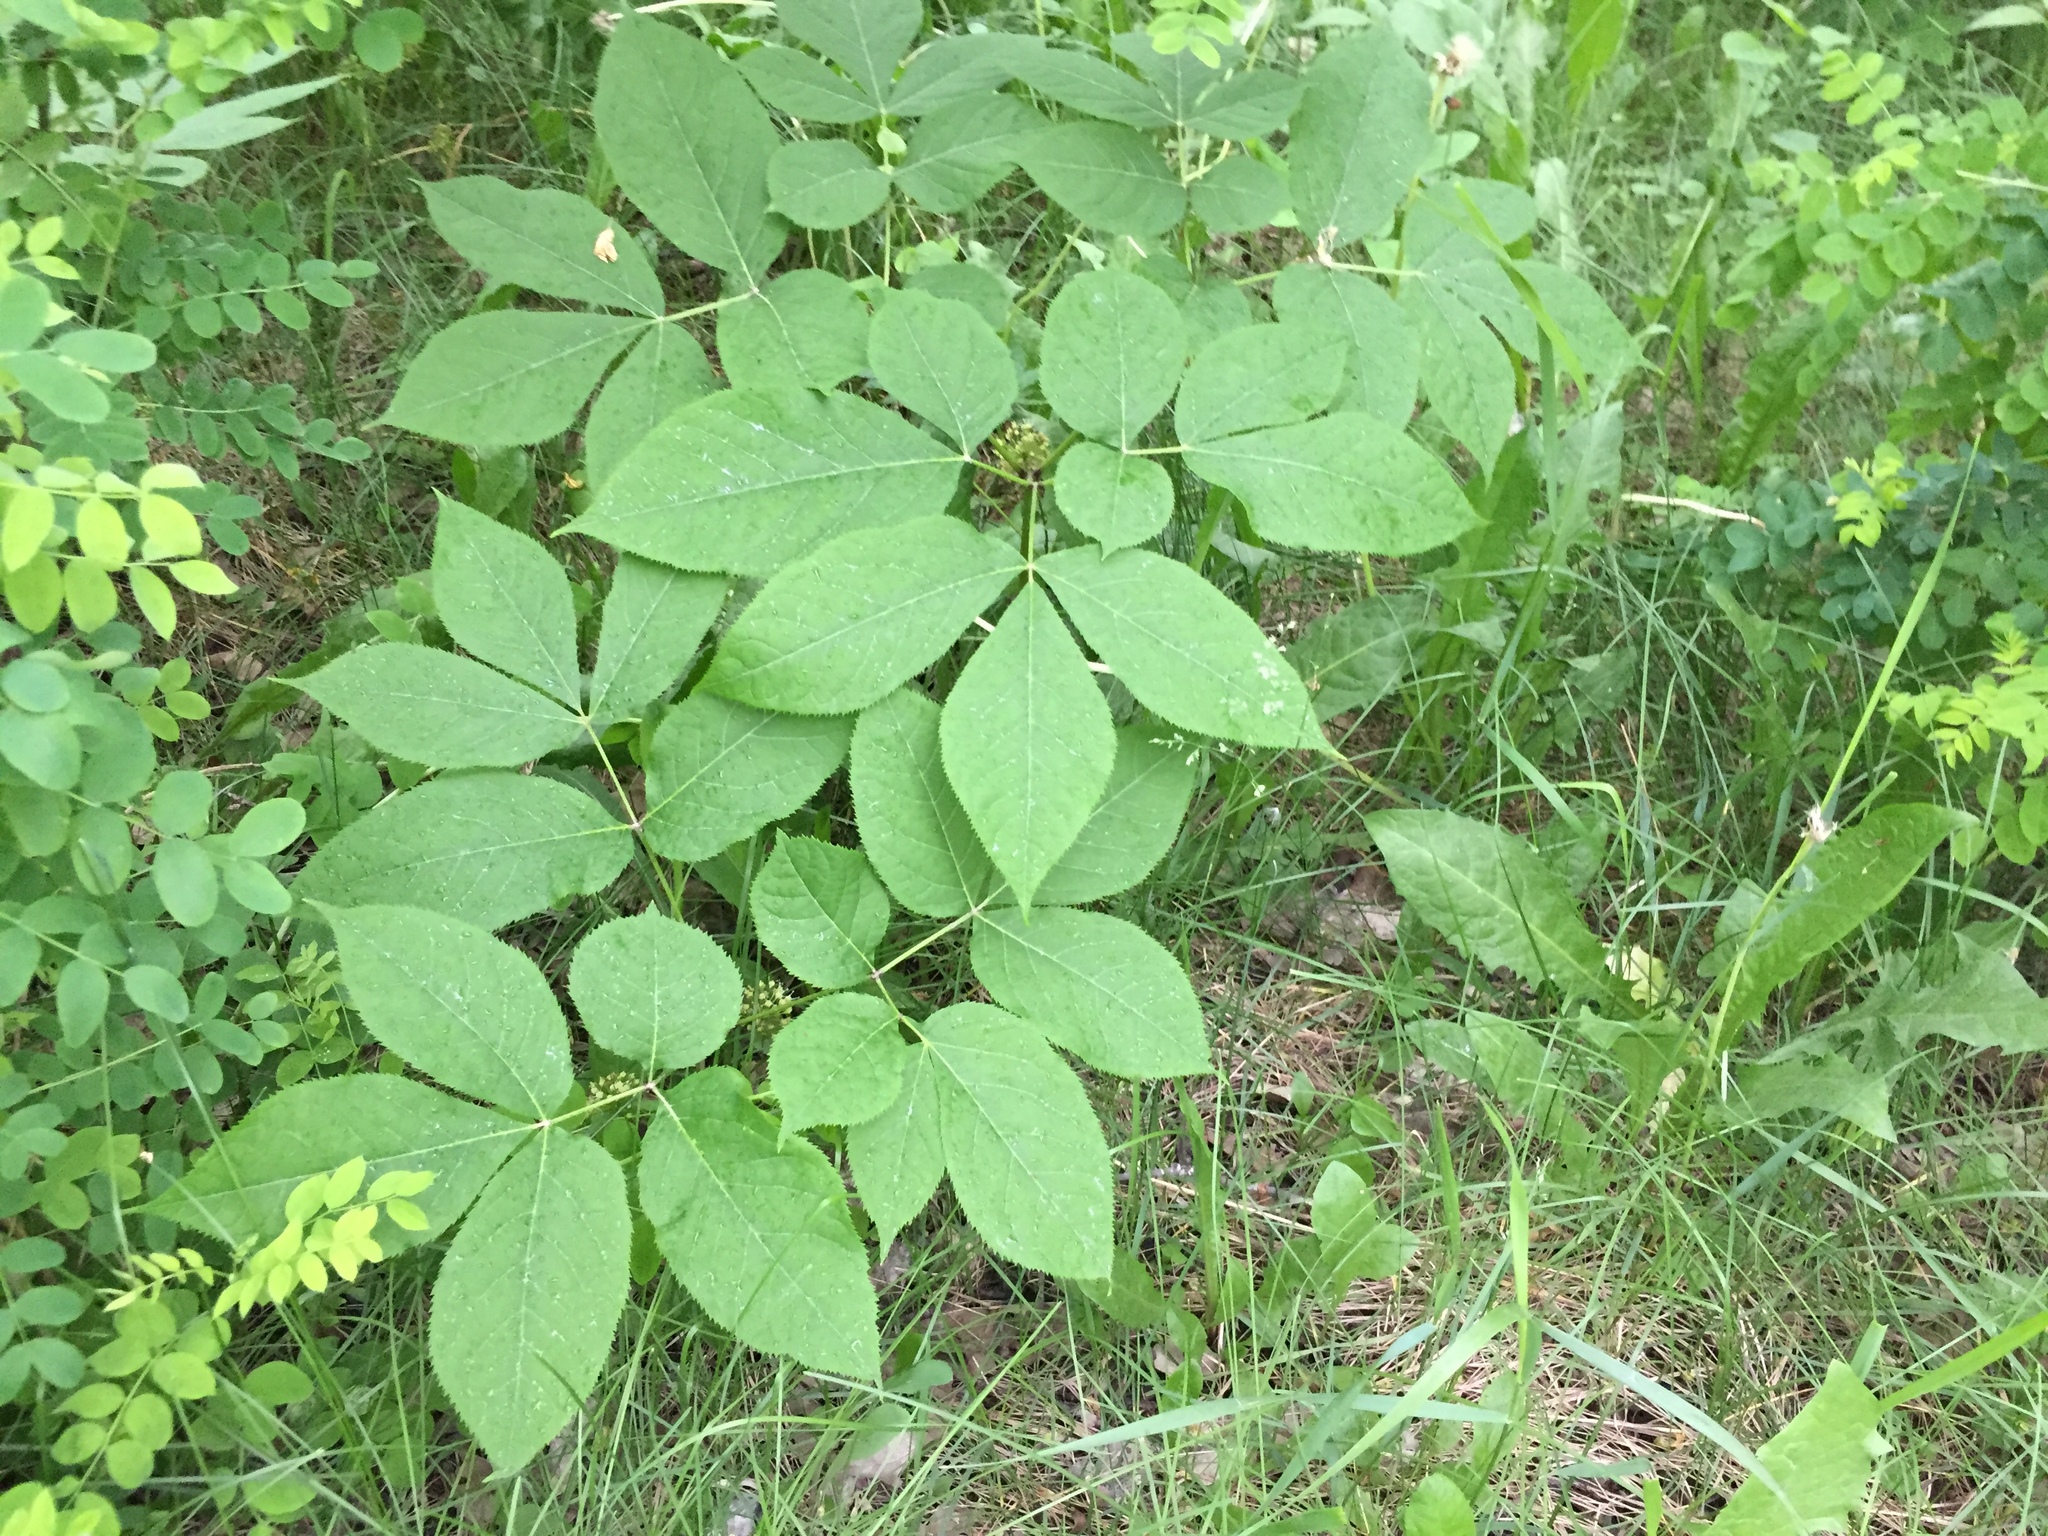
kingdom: Plantae
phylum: Tracheophyta
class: Magnoliopsida
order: Apiales
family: Araliaceae
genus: Aralia
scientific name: Aralia nudicaulis
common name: Wild sarsaparilla
